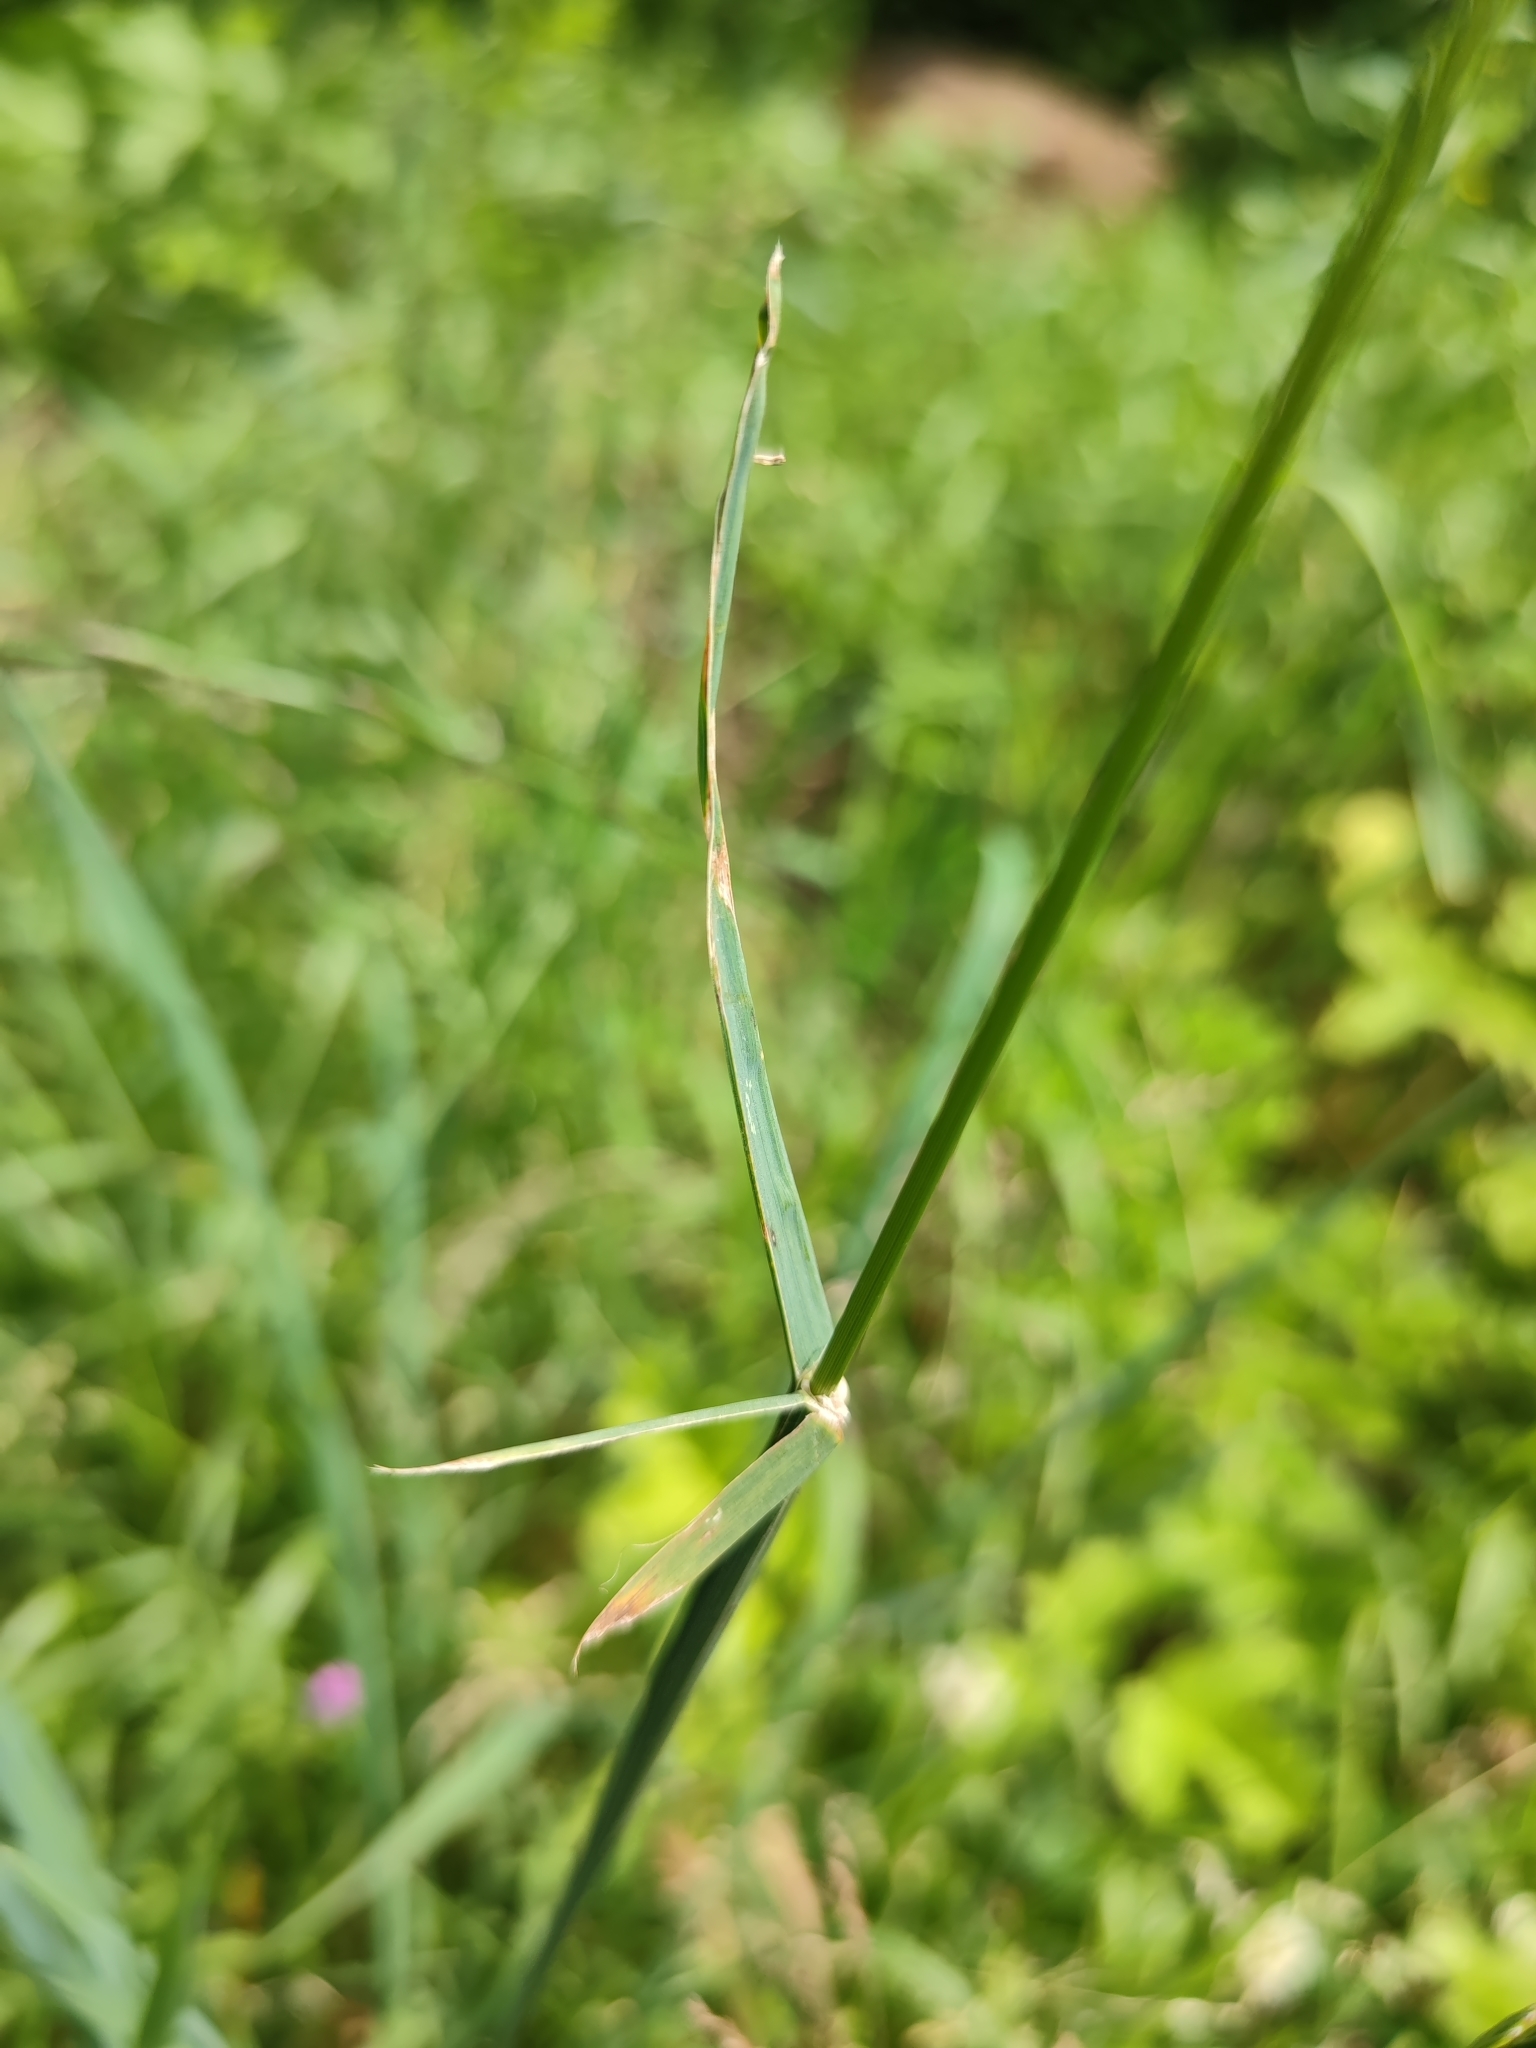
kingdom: Plantae
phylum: Tracheophyta
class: Liliopsida
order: Poales
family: Poaceae
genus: Dactylis
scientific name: Dactylis glomerata
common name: Orchardgrass
